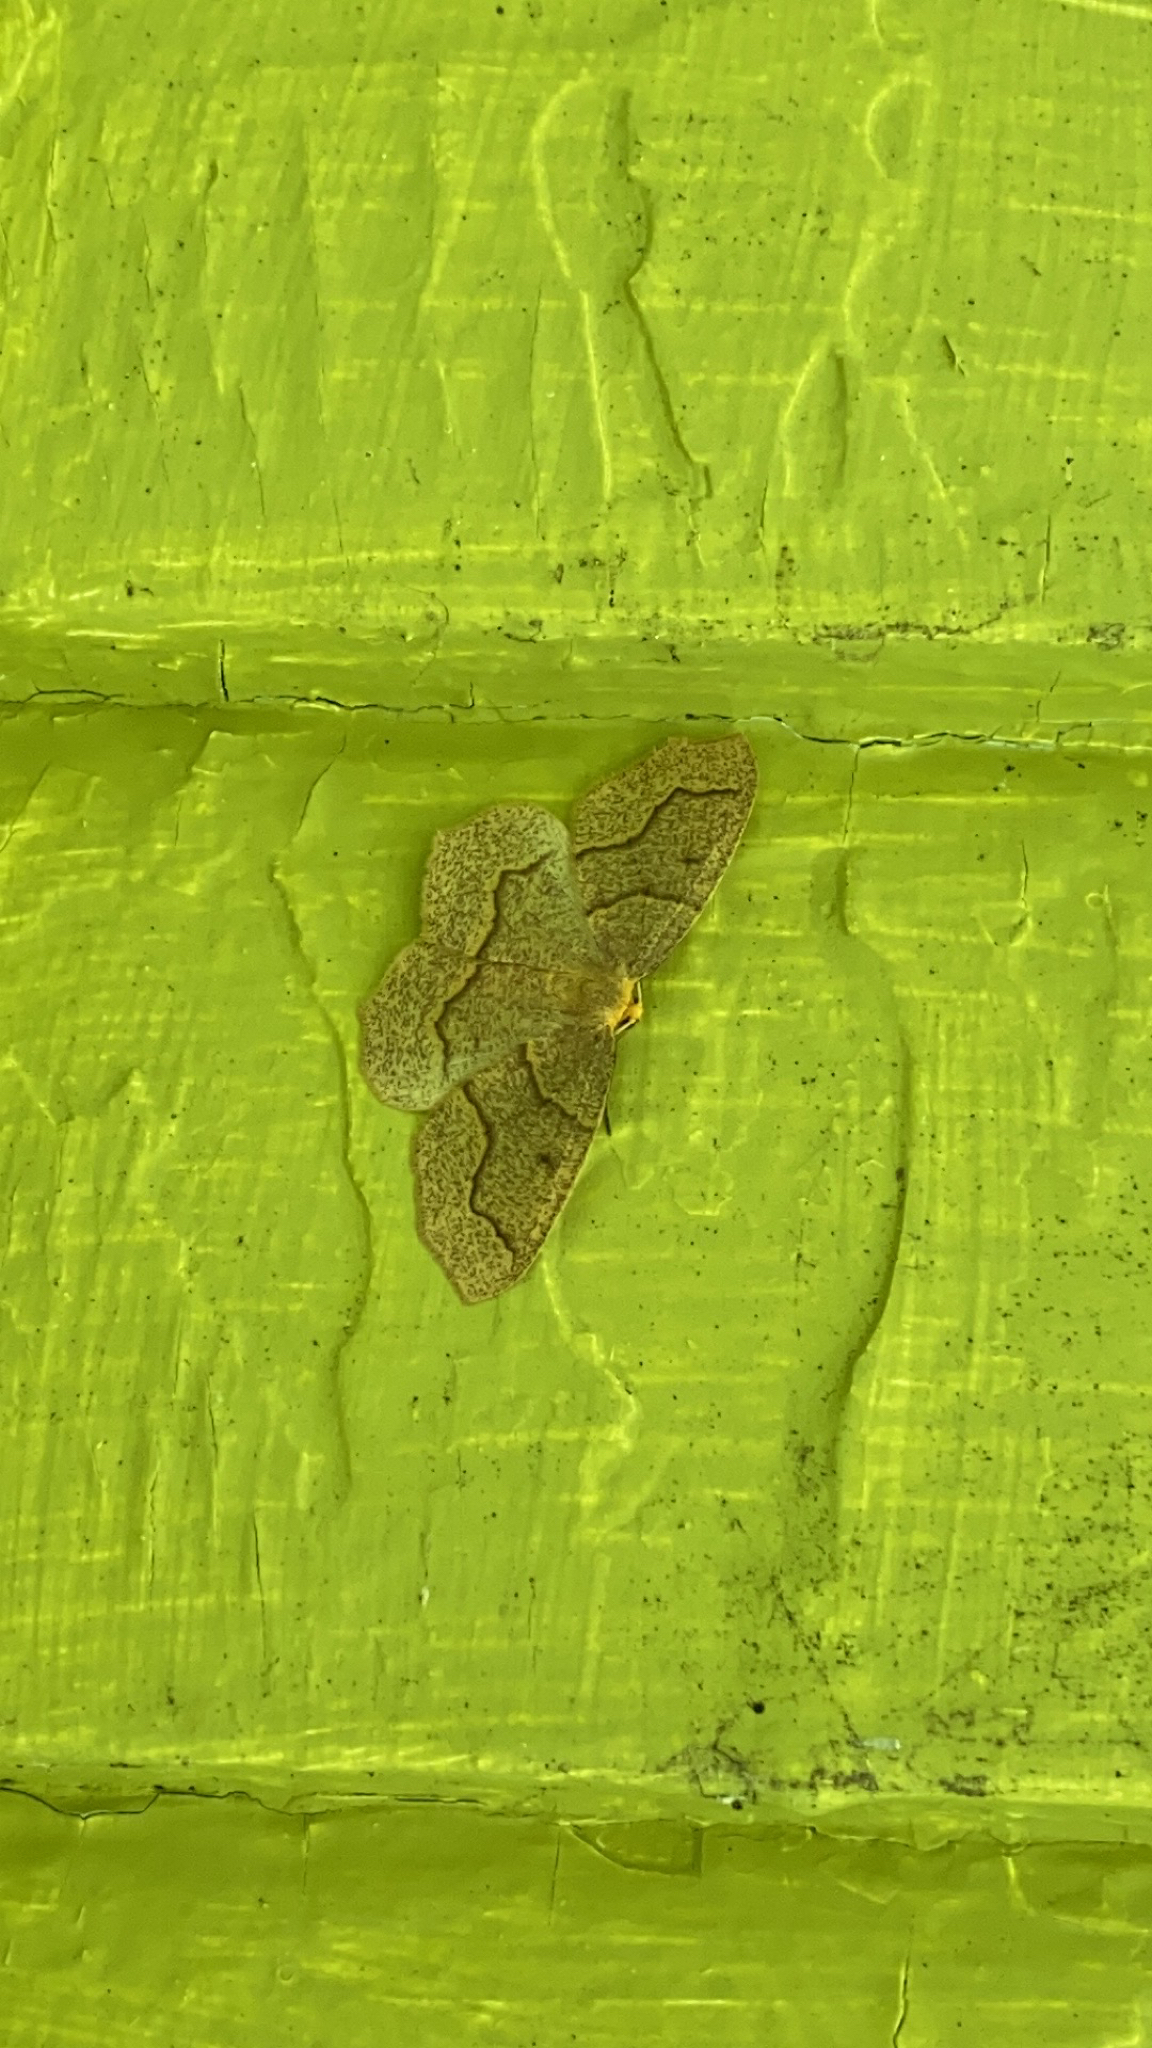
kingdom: Animalia
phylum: Arthropoda
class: Insecta
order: Lepidoptera
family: Geometridae
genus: Lambdina
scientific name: Lambdina fiscellaria
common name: Hemlock looper
